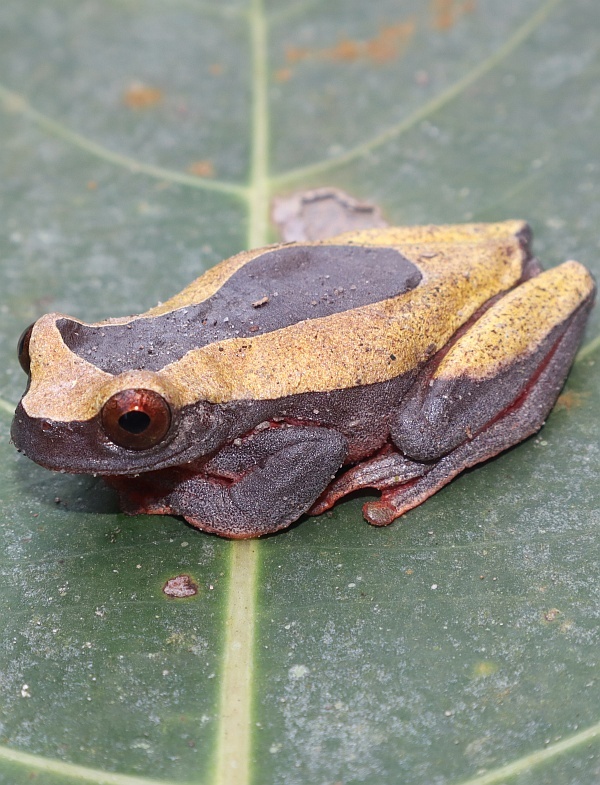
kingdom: Animalia
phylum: Chordata
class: Amphibia
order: Anura
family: Hylidae
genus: Dendropsophus
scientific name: Dendropsophus leucophyllatus
